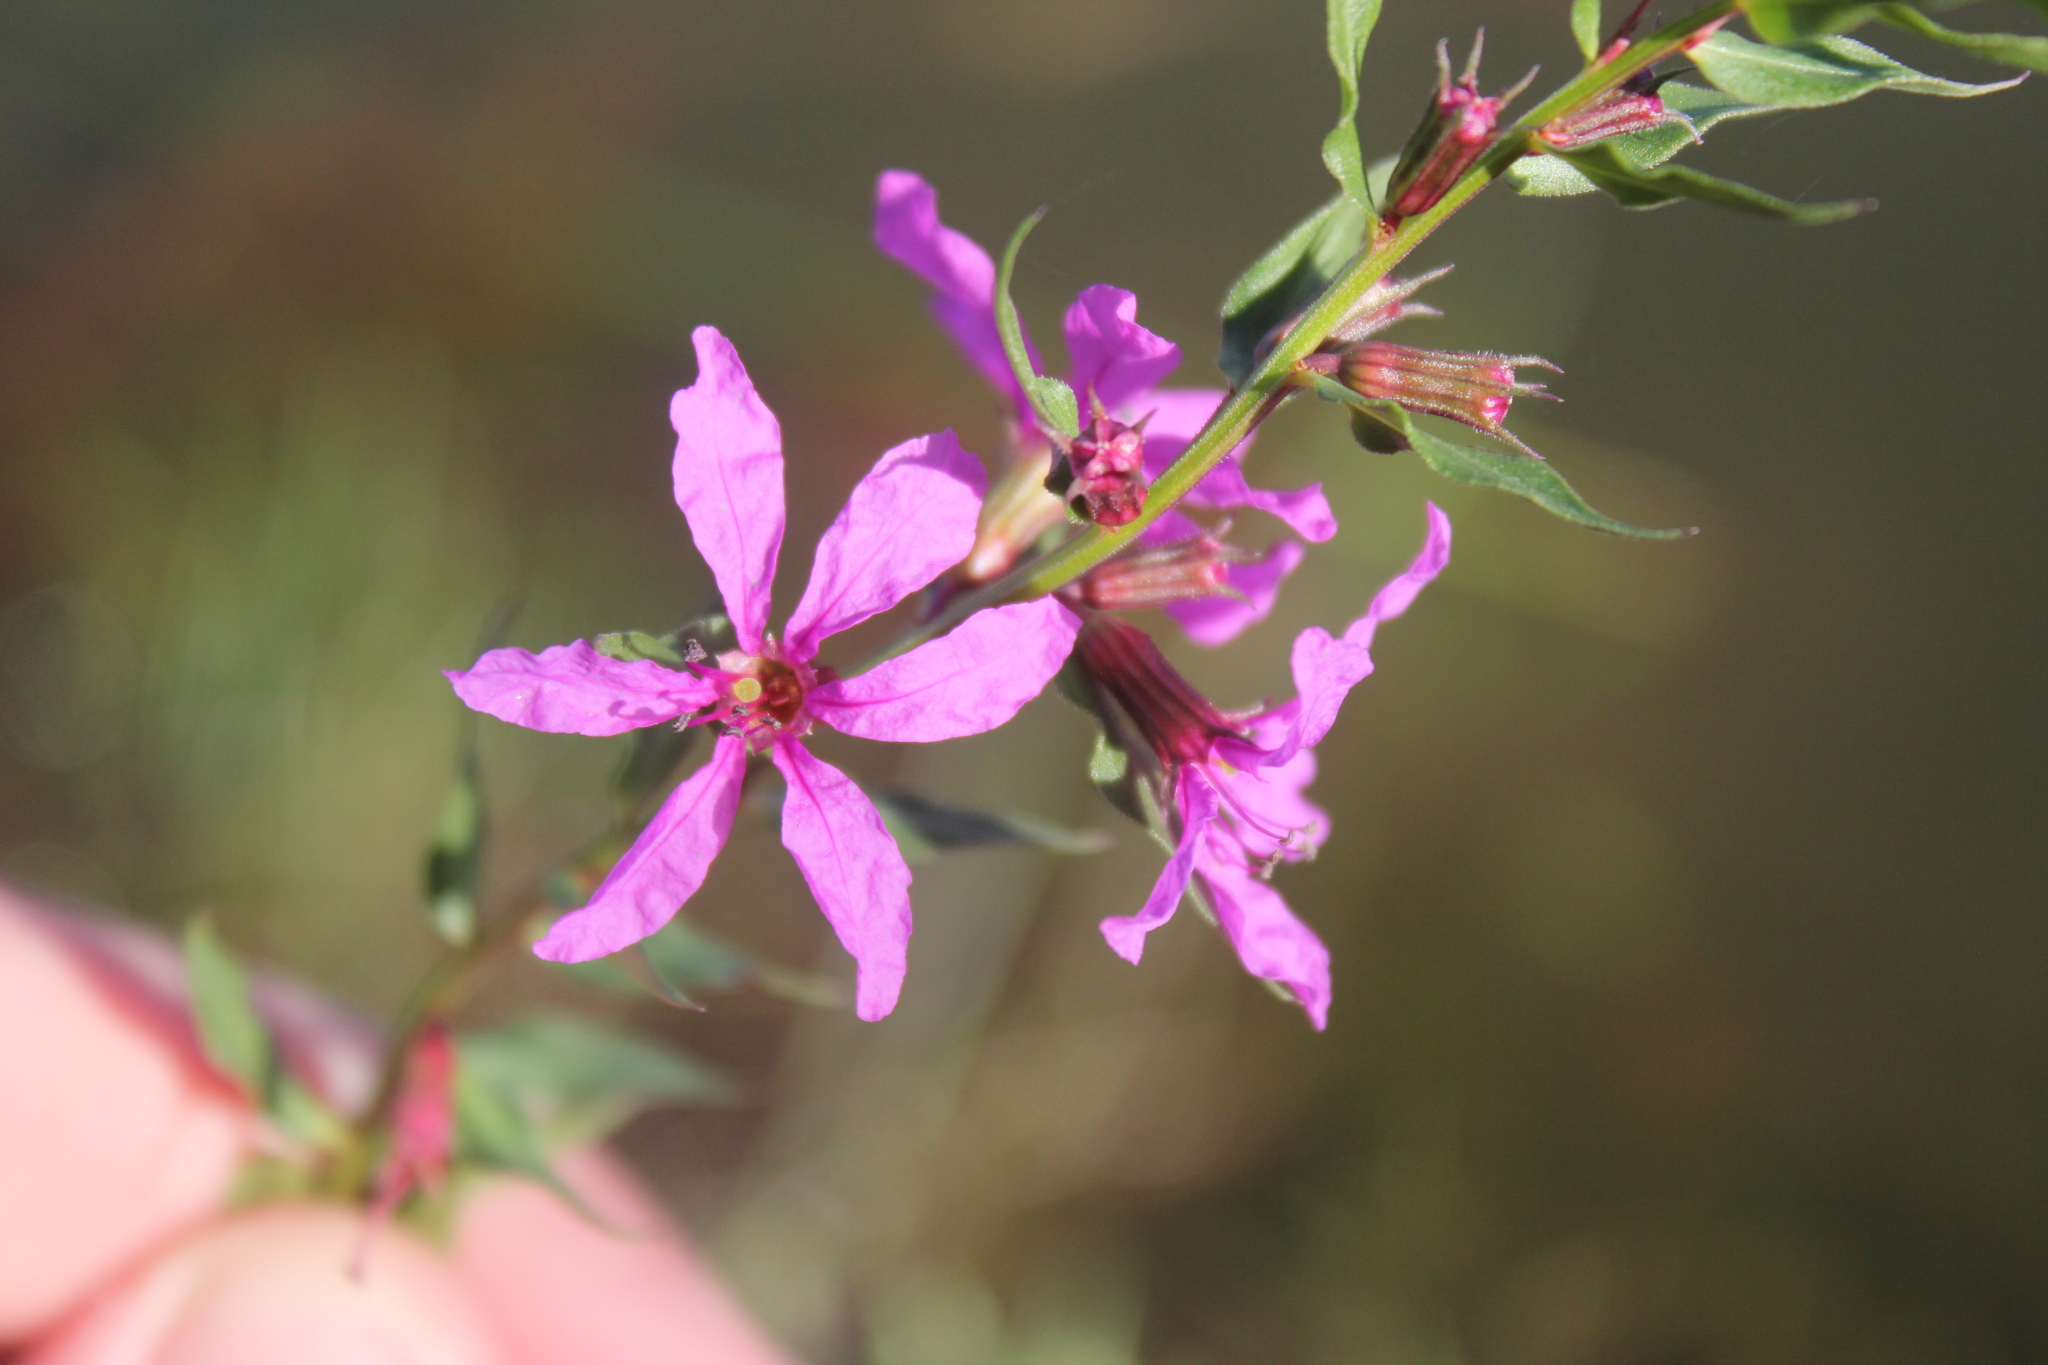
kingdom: Plantae
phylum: Tracheophyta
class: Magnoliopsida
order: Myrtales
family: Lythraceae
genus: Lythrum
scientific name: Lythrum salicaria
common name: Purple loosestrife
